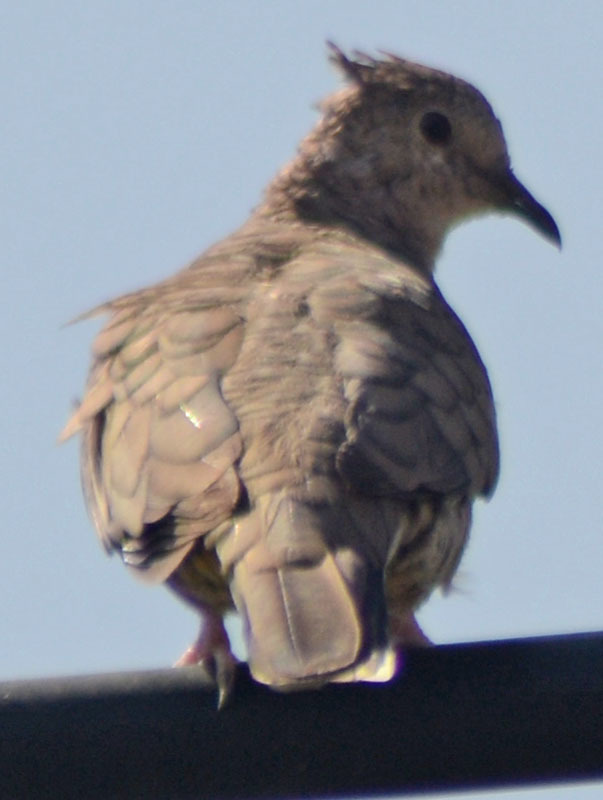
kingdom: Animalia
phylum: Chordata
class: Aves
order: Columbiformes
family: Columbidae
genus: Columbina
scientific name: Columbina inca
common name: Inca dove
